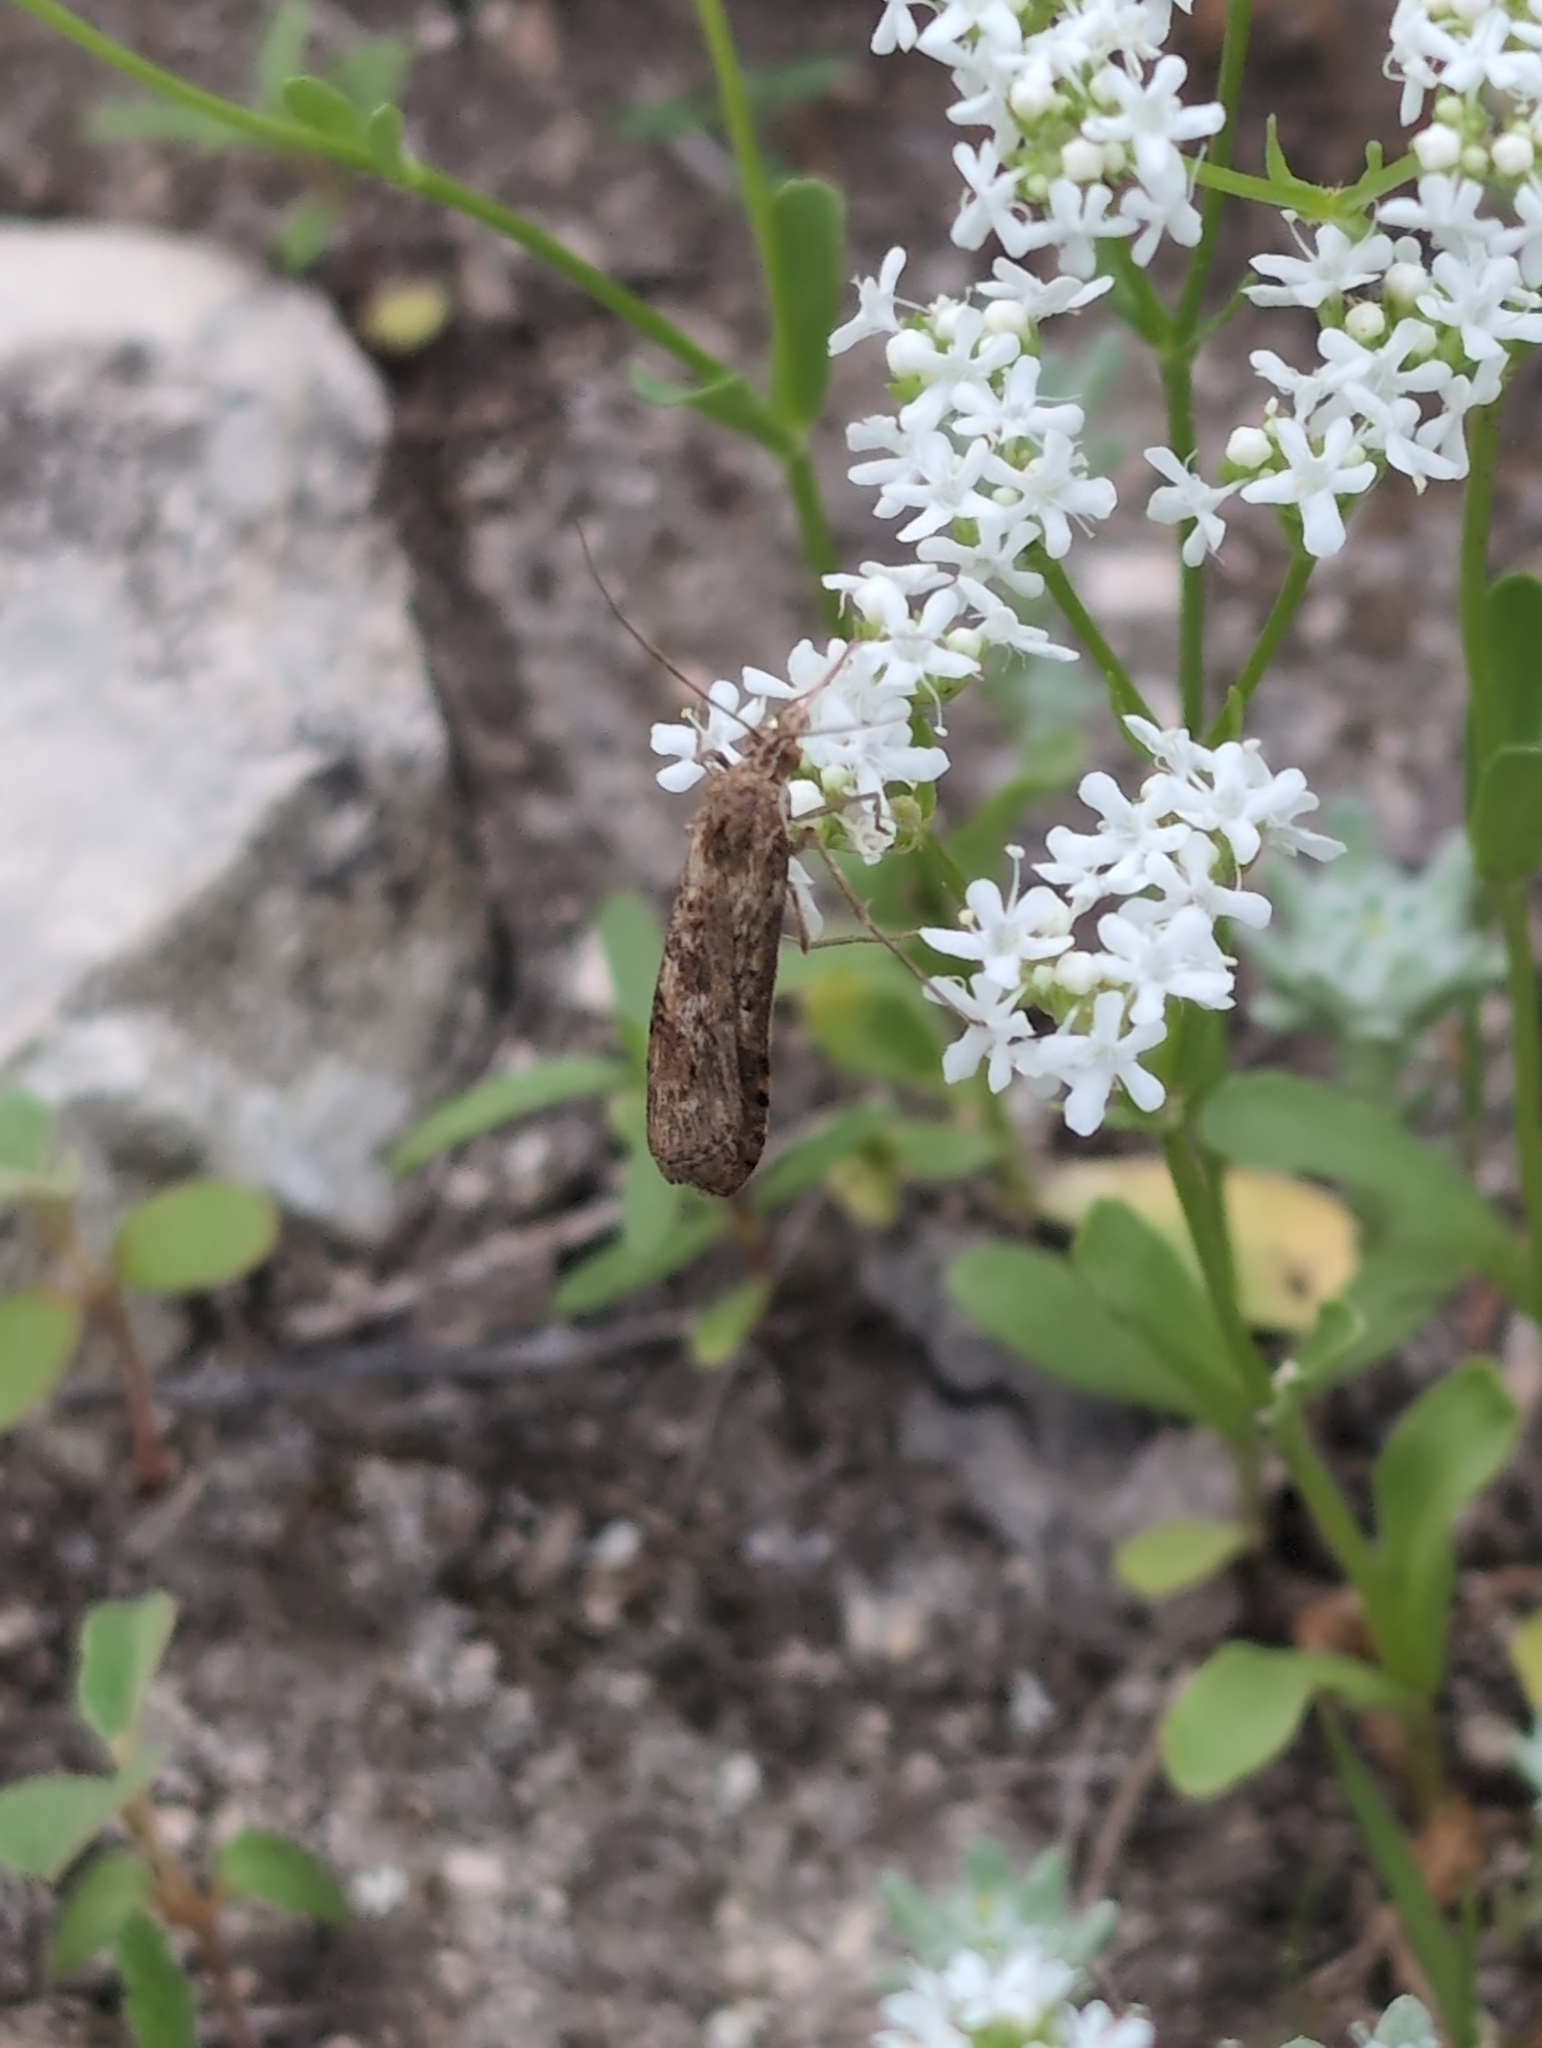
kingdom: Animalia
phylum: Arthropoda
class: Insecta
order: Lepidoptera
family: Crambidae
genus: Nomophila
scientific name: Nomophila nearctica
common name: American rush veneer
